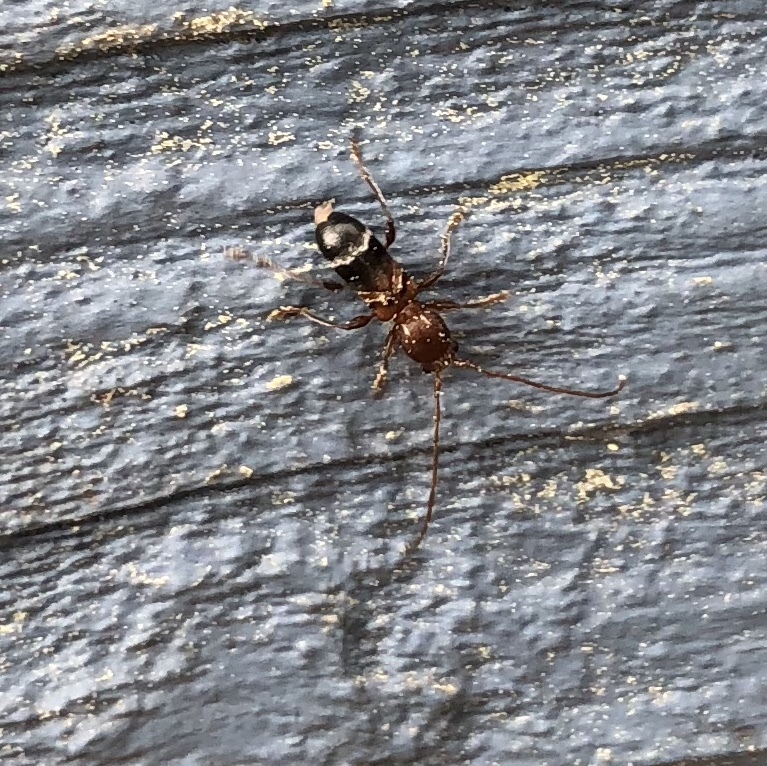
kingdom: Animalia
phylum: Arthropoda
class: Insecta
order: Coleoptera
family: Cerambycidae
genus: Euderces
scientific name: Euderces pini
